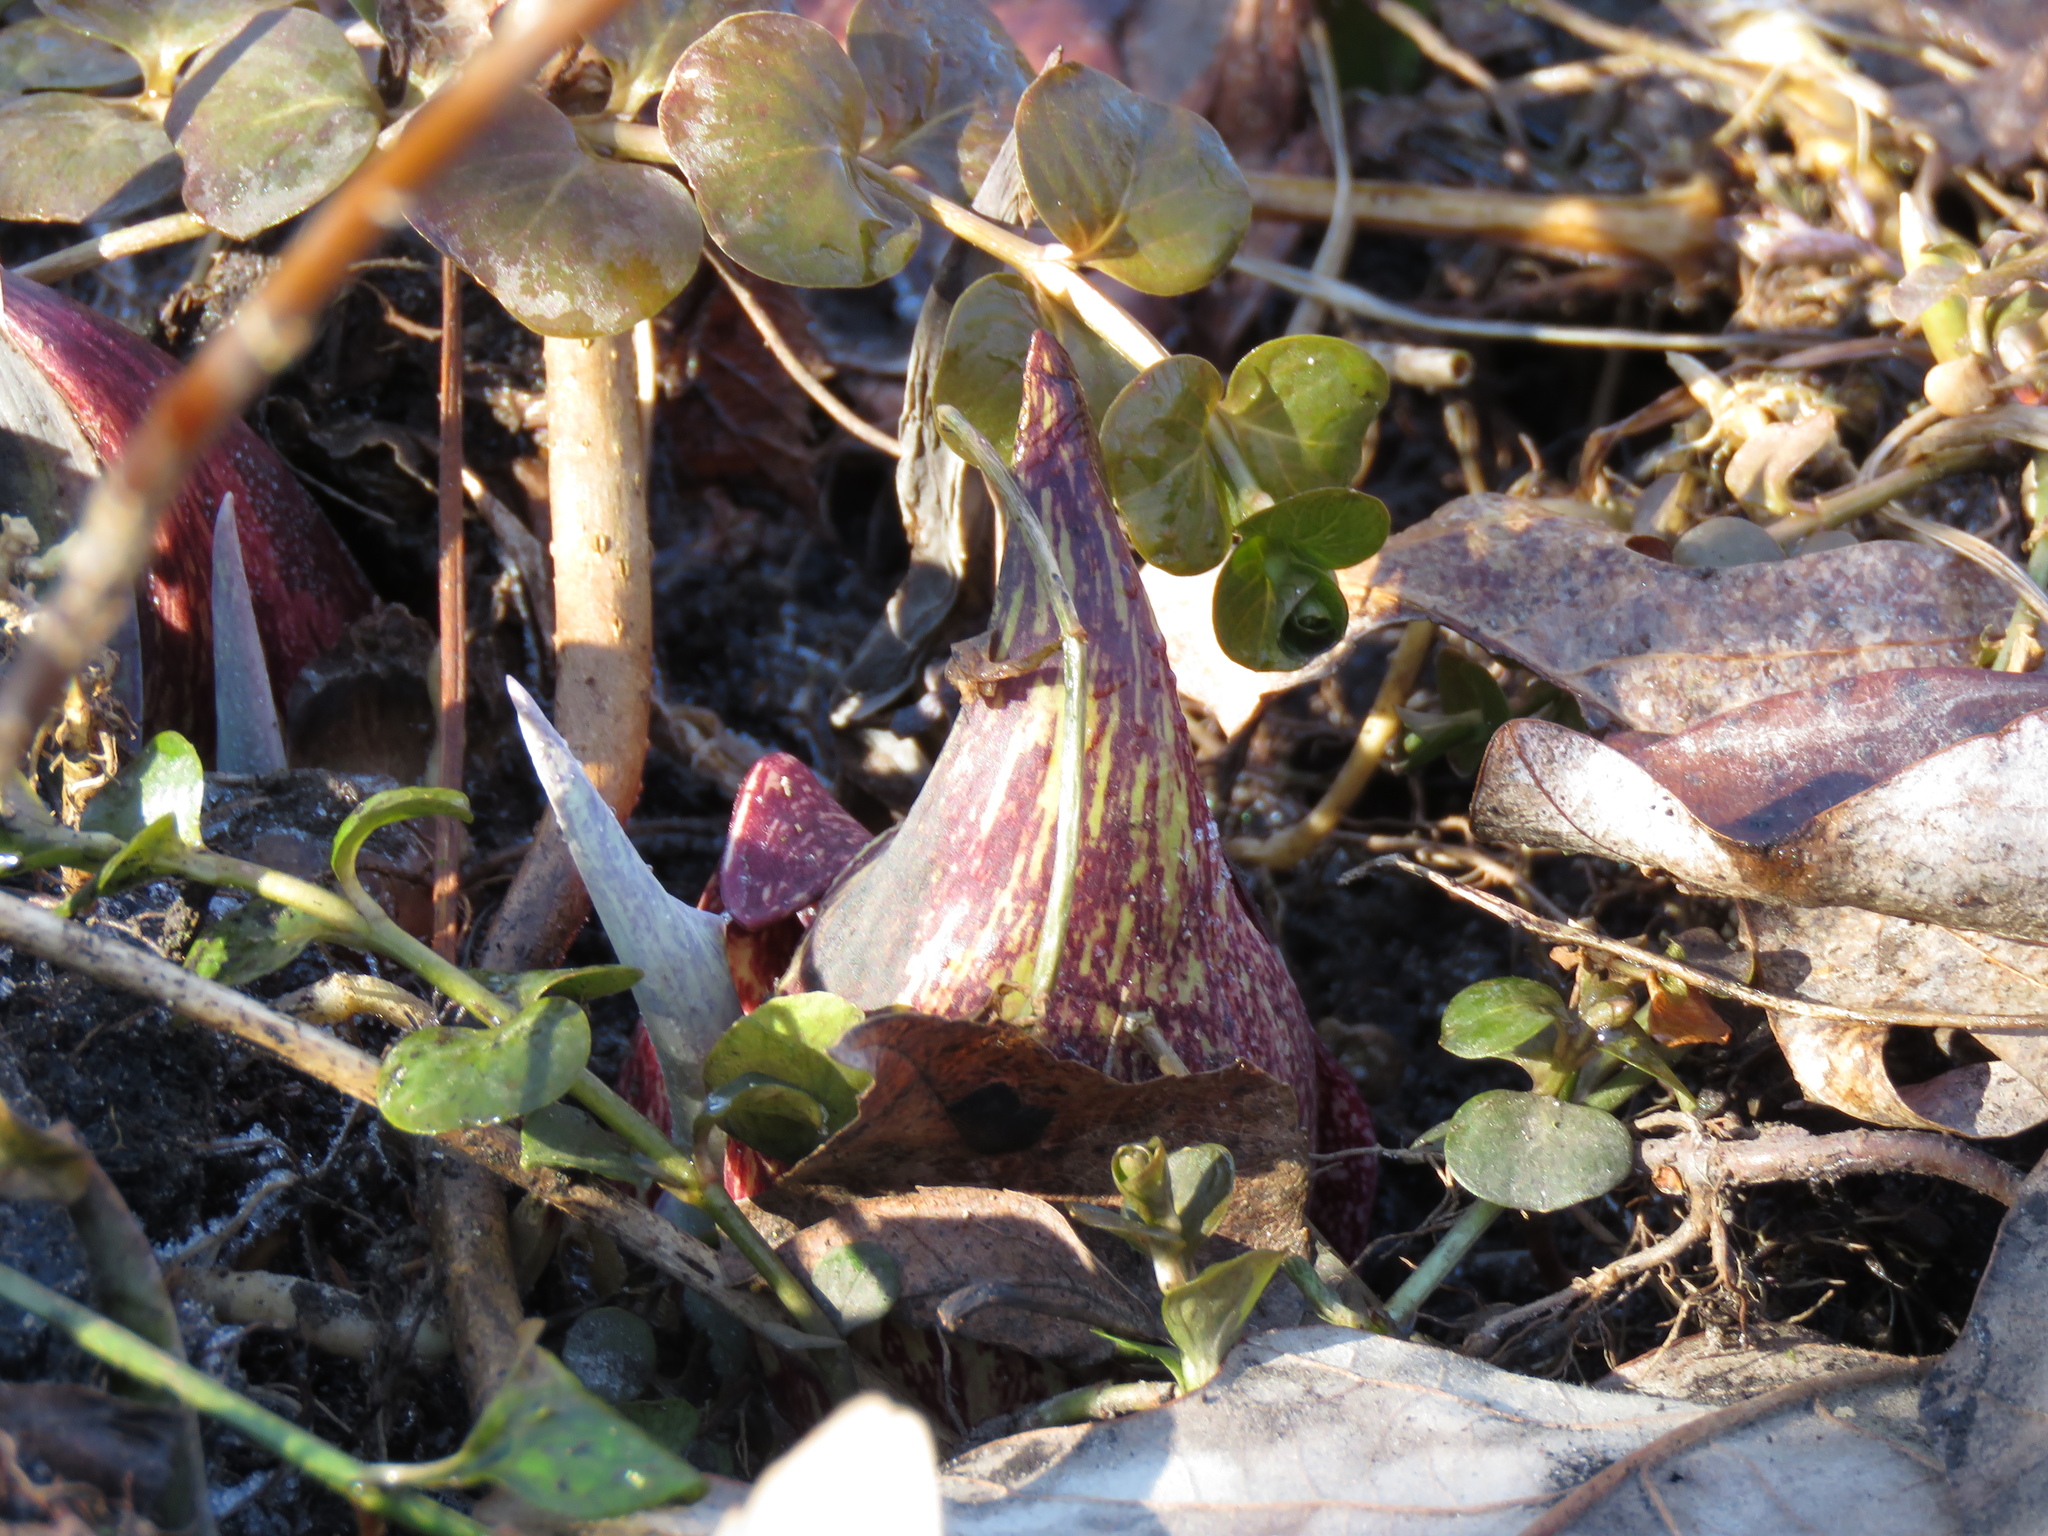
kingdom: Plantae
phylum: Tracheophyta
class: Liliopsida
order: Alismatales
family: Araceae
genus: Symplocarpus
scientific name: Symplocarpus foetidus
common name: Eastern skunk cabbage
